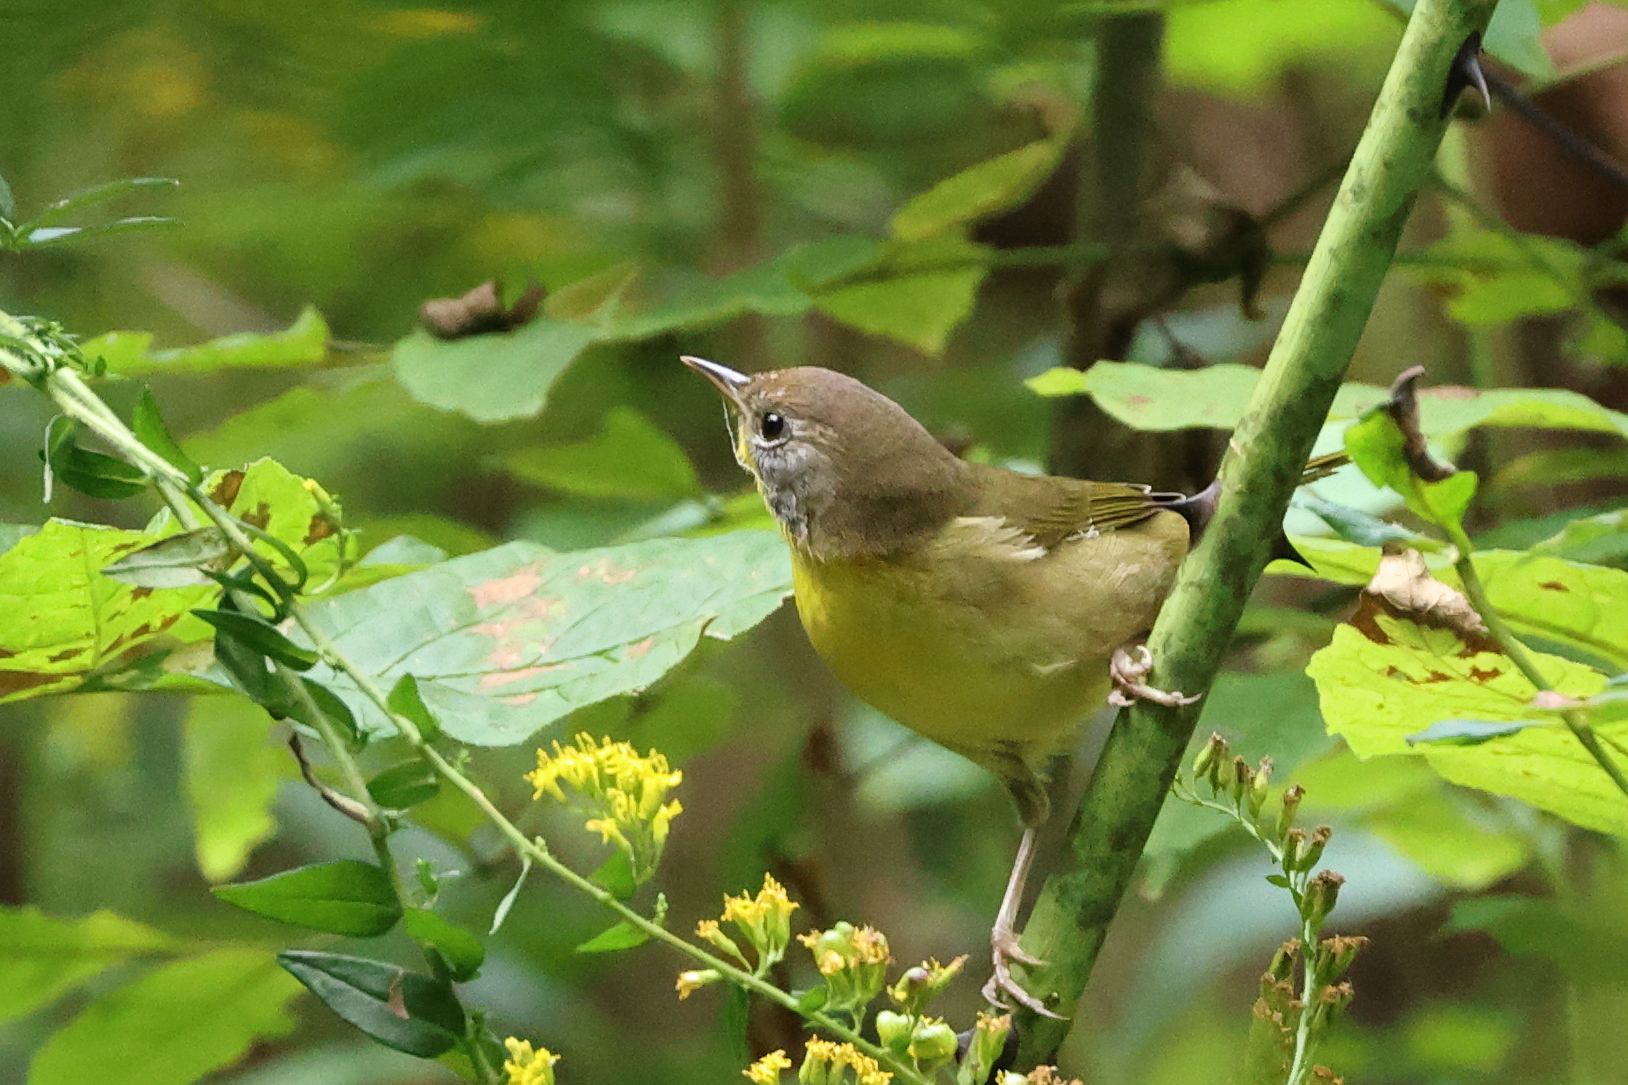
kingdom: Animalia
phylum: Chordata
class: Aves
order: Passeriformes
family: Parulidae
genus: Geothlypis
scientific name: Geothlypis trichas
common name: Common yellowthroat
